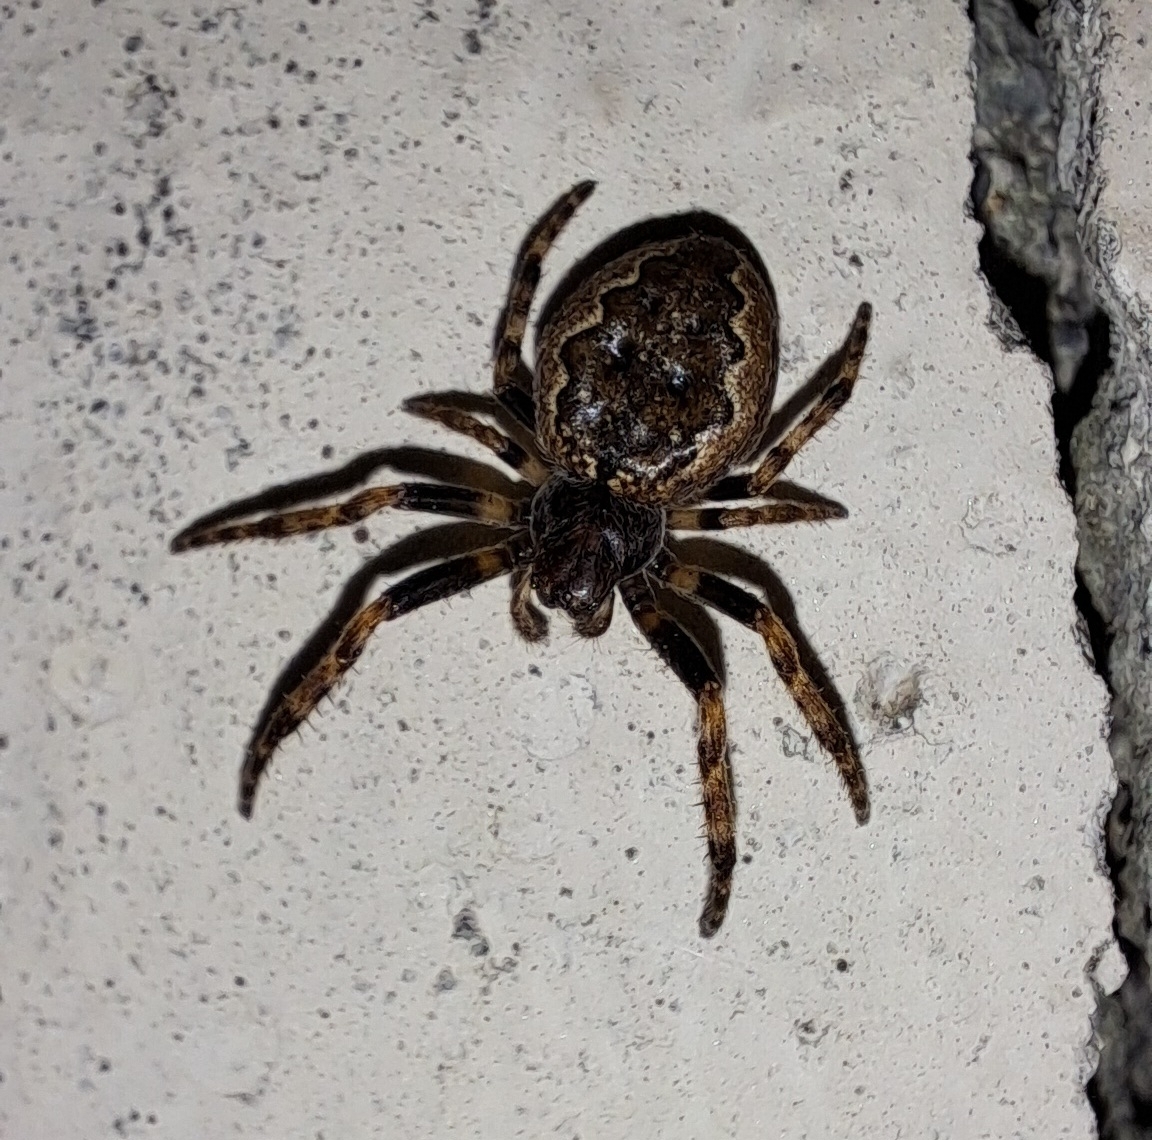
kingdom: Animalia
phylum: Arthropoda
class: Arachnida
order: Araneae
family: Araneidae
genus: Nuctenea
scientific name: Nuctenea umbratica
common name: Toad spider
